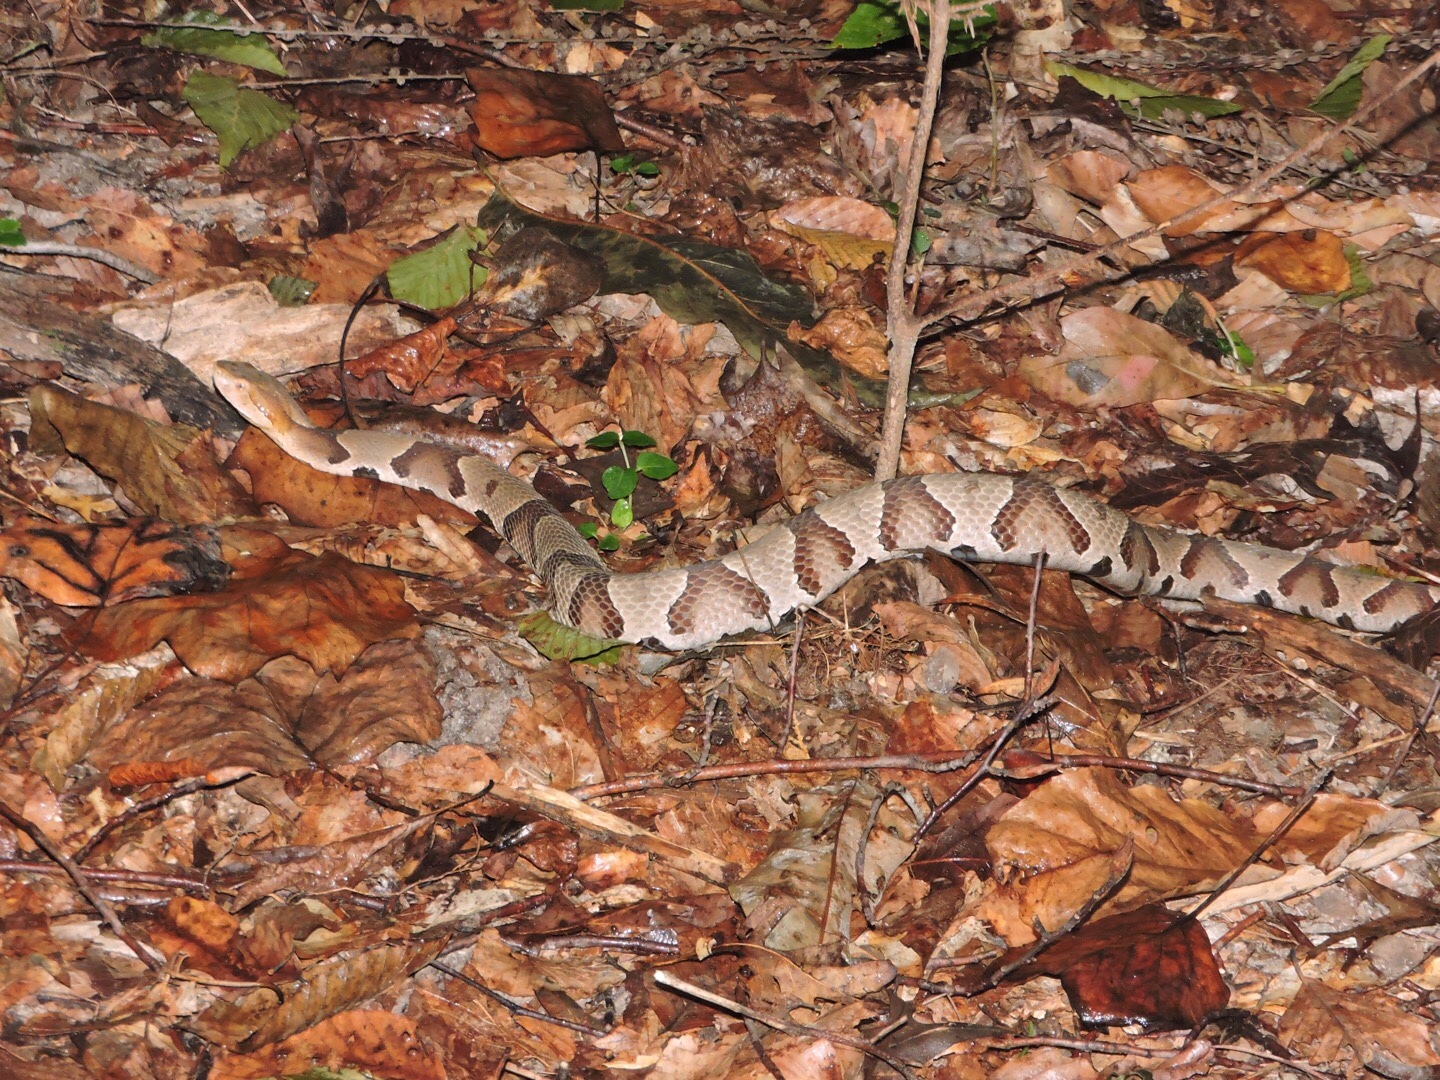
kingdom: Animalia
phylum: Chordata
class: Squamata
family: Viperidae
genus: Agkistrodon
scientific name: Agkistrodon contortrix
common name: Northern copperhead
